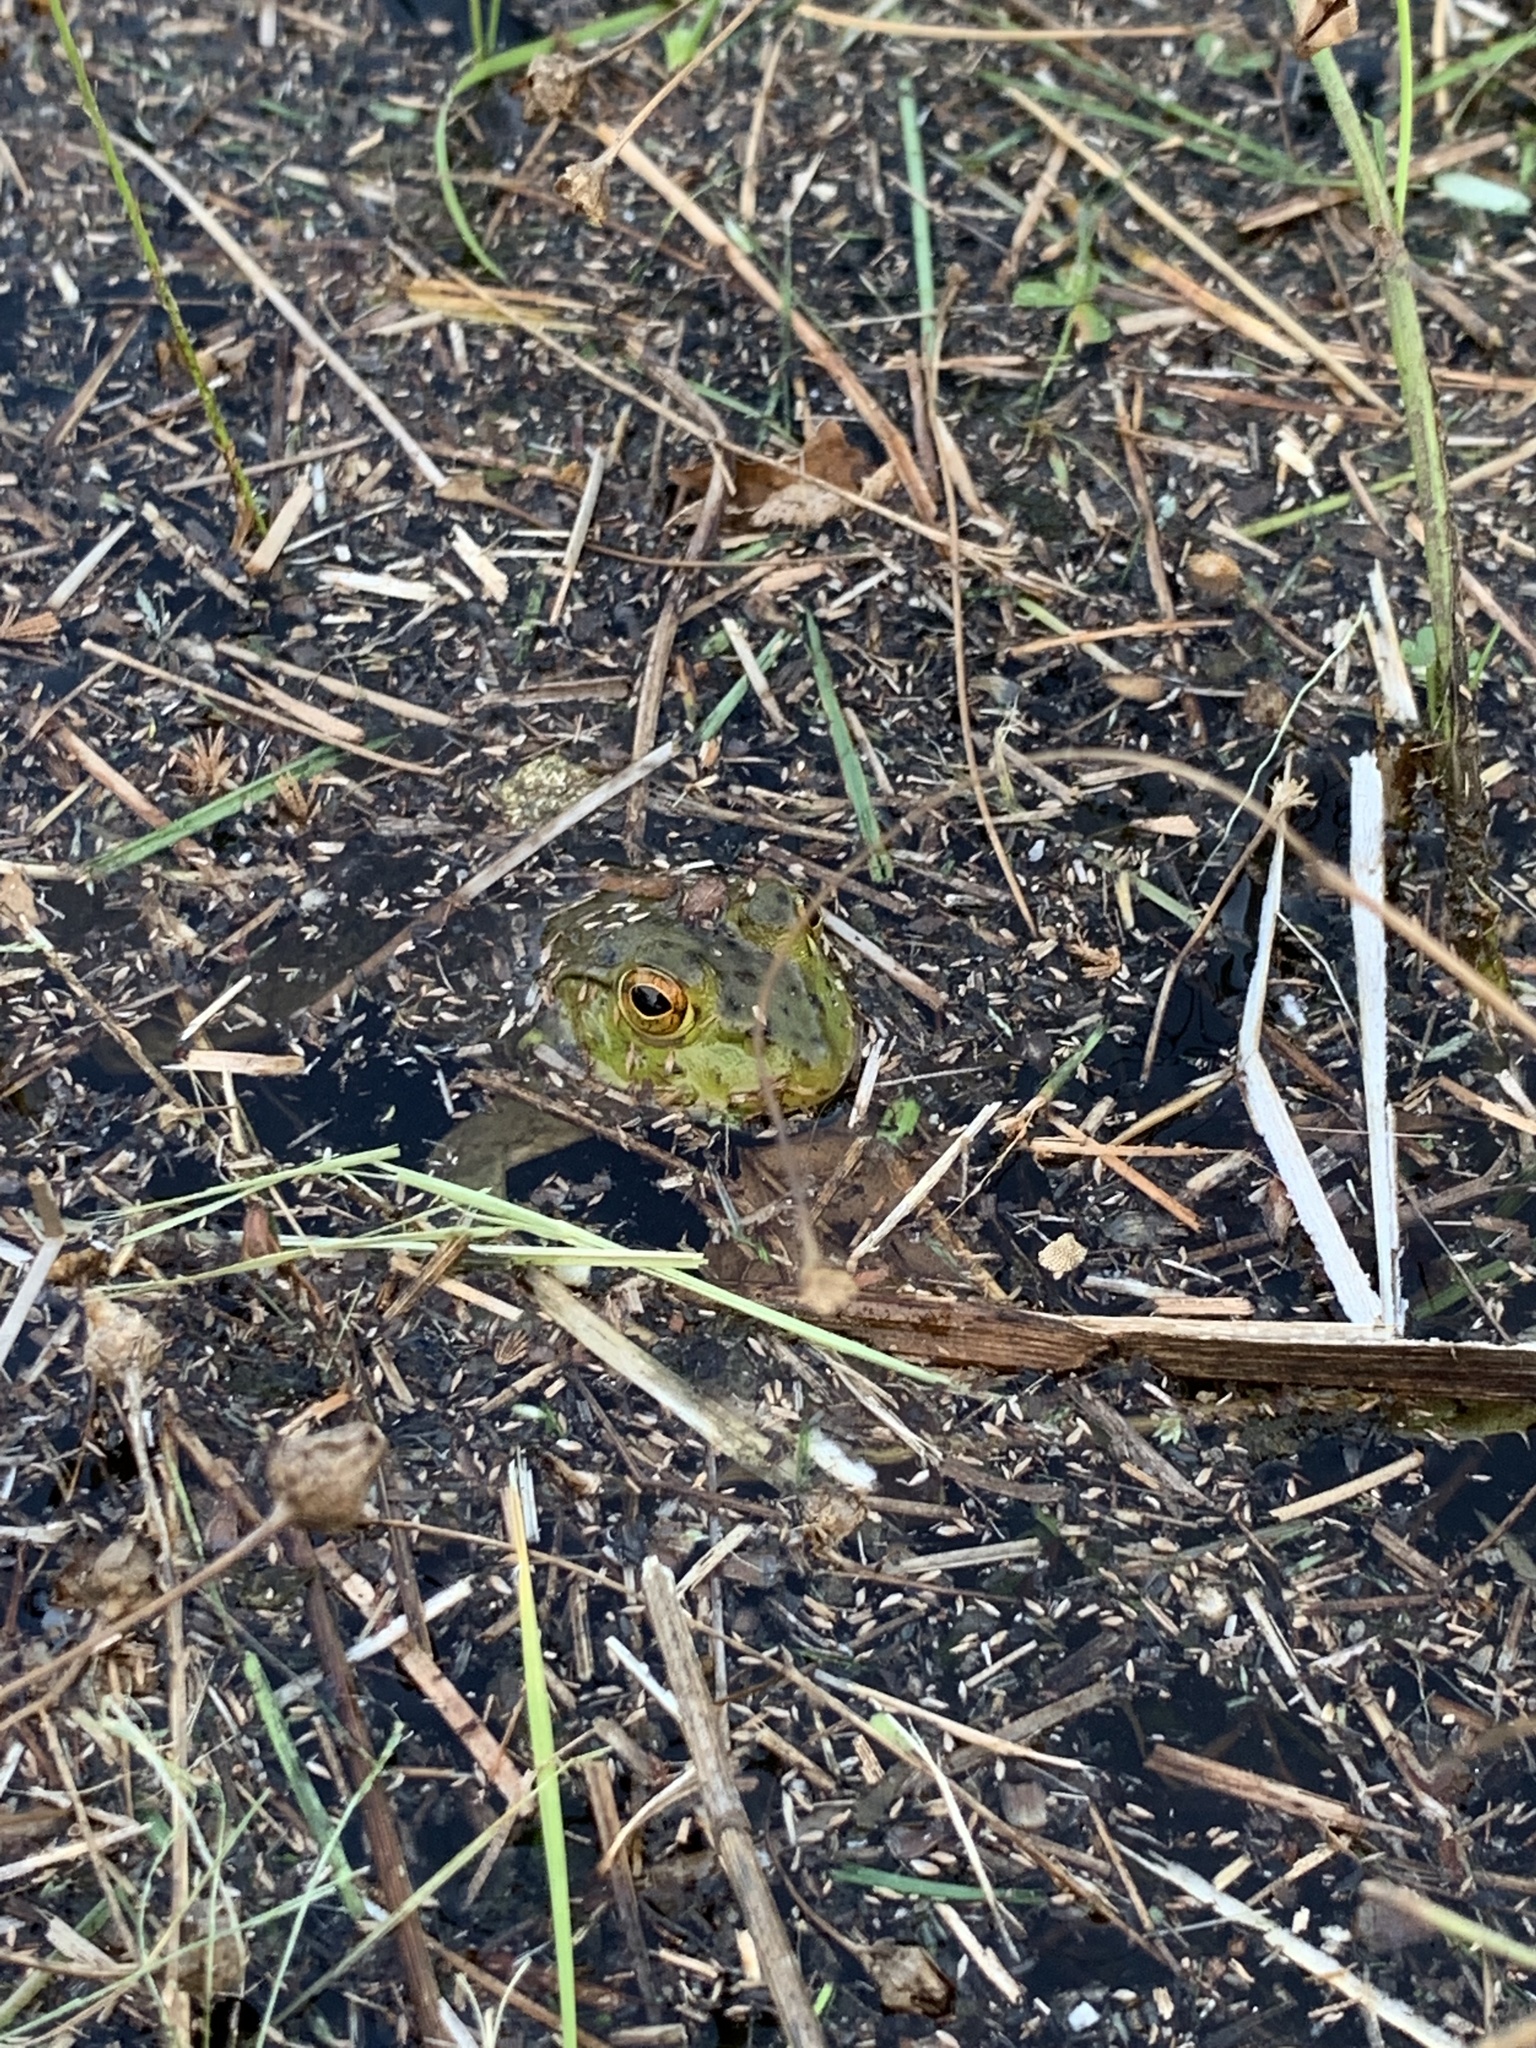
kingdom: Animalia
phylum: Chordata
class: Amphibia
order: Anura
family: Ranidae
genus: Lithobates
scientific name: Lithobates catesbeianus
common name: American bullfrog
